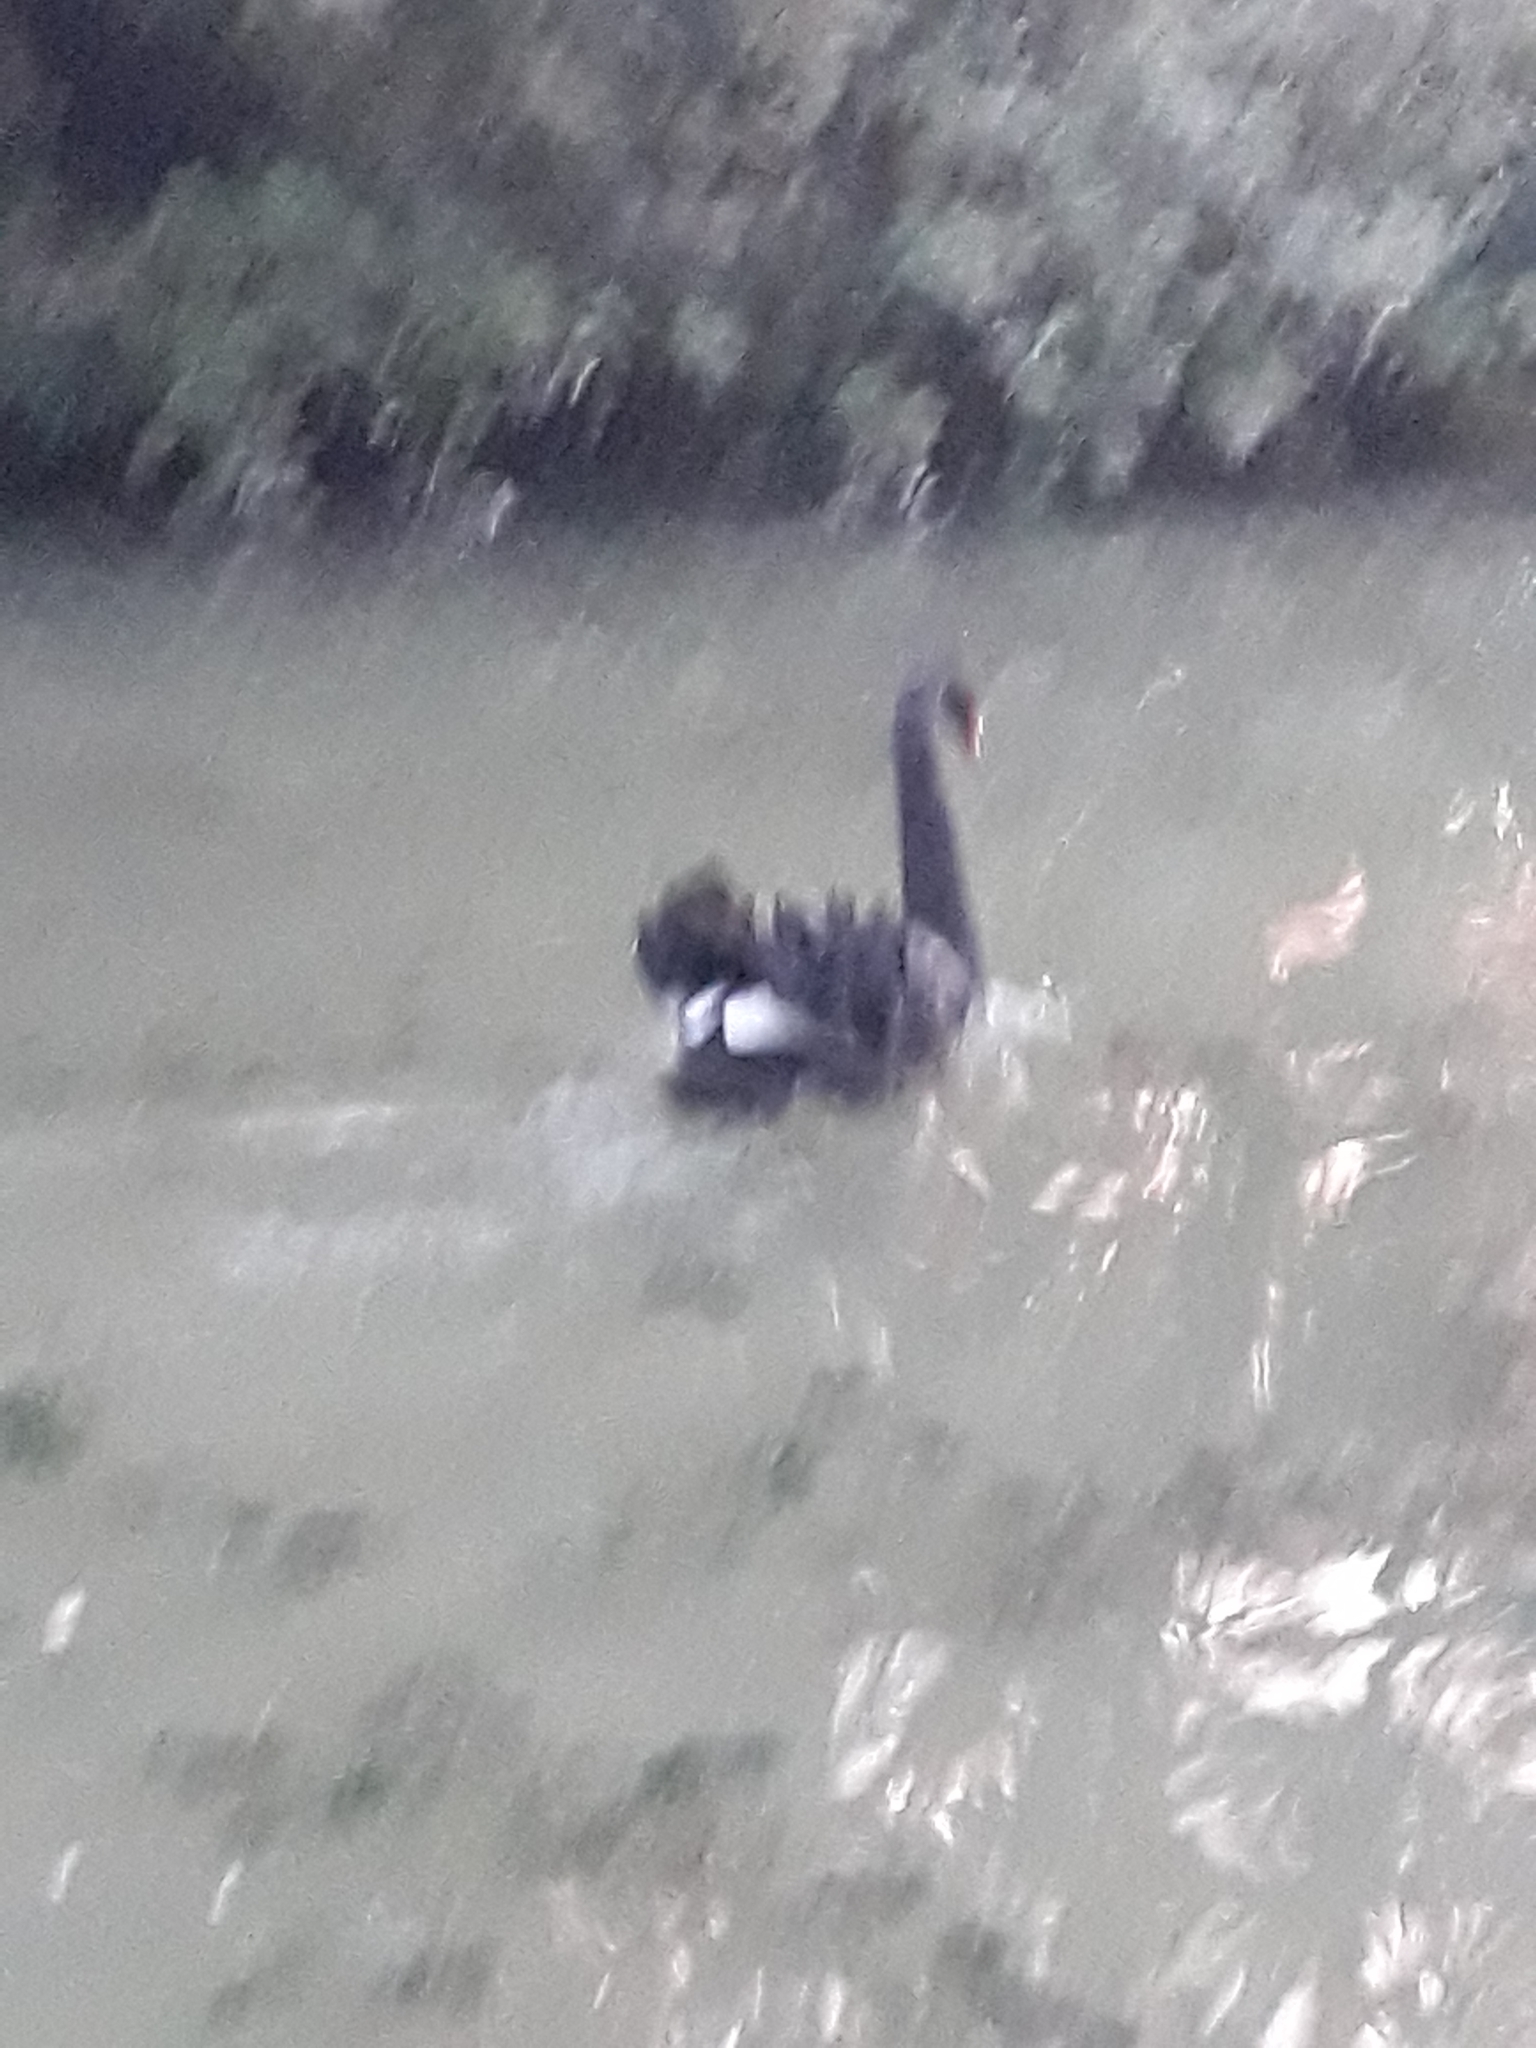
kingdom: Animalia
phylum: Chordata
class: Aves
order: Anseriformes
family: Anatidae
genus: Cygnus
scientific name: Cygnus atratus
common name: Black swan
